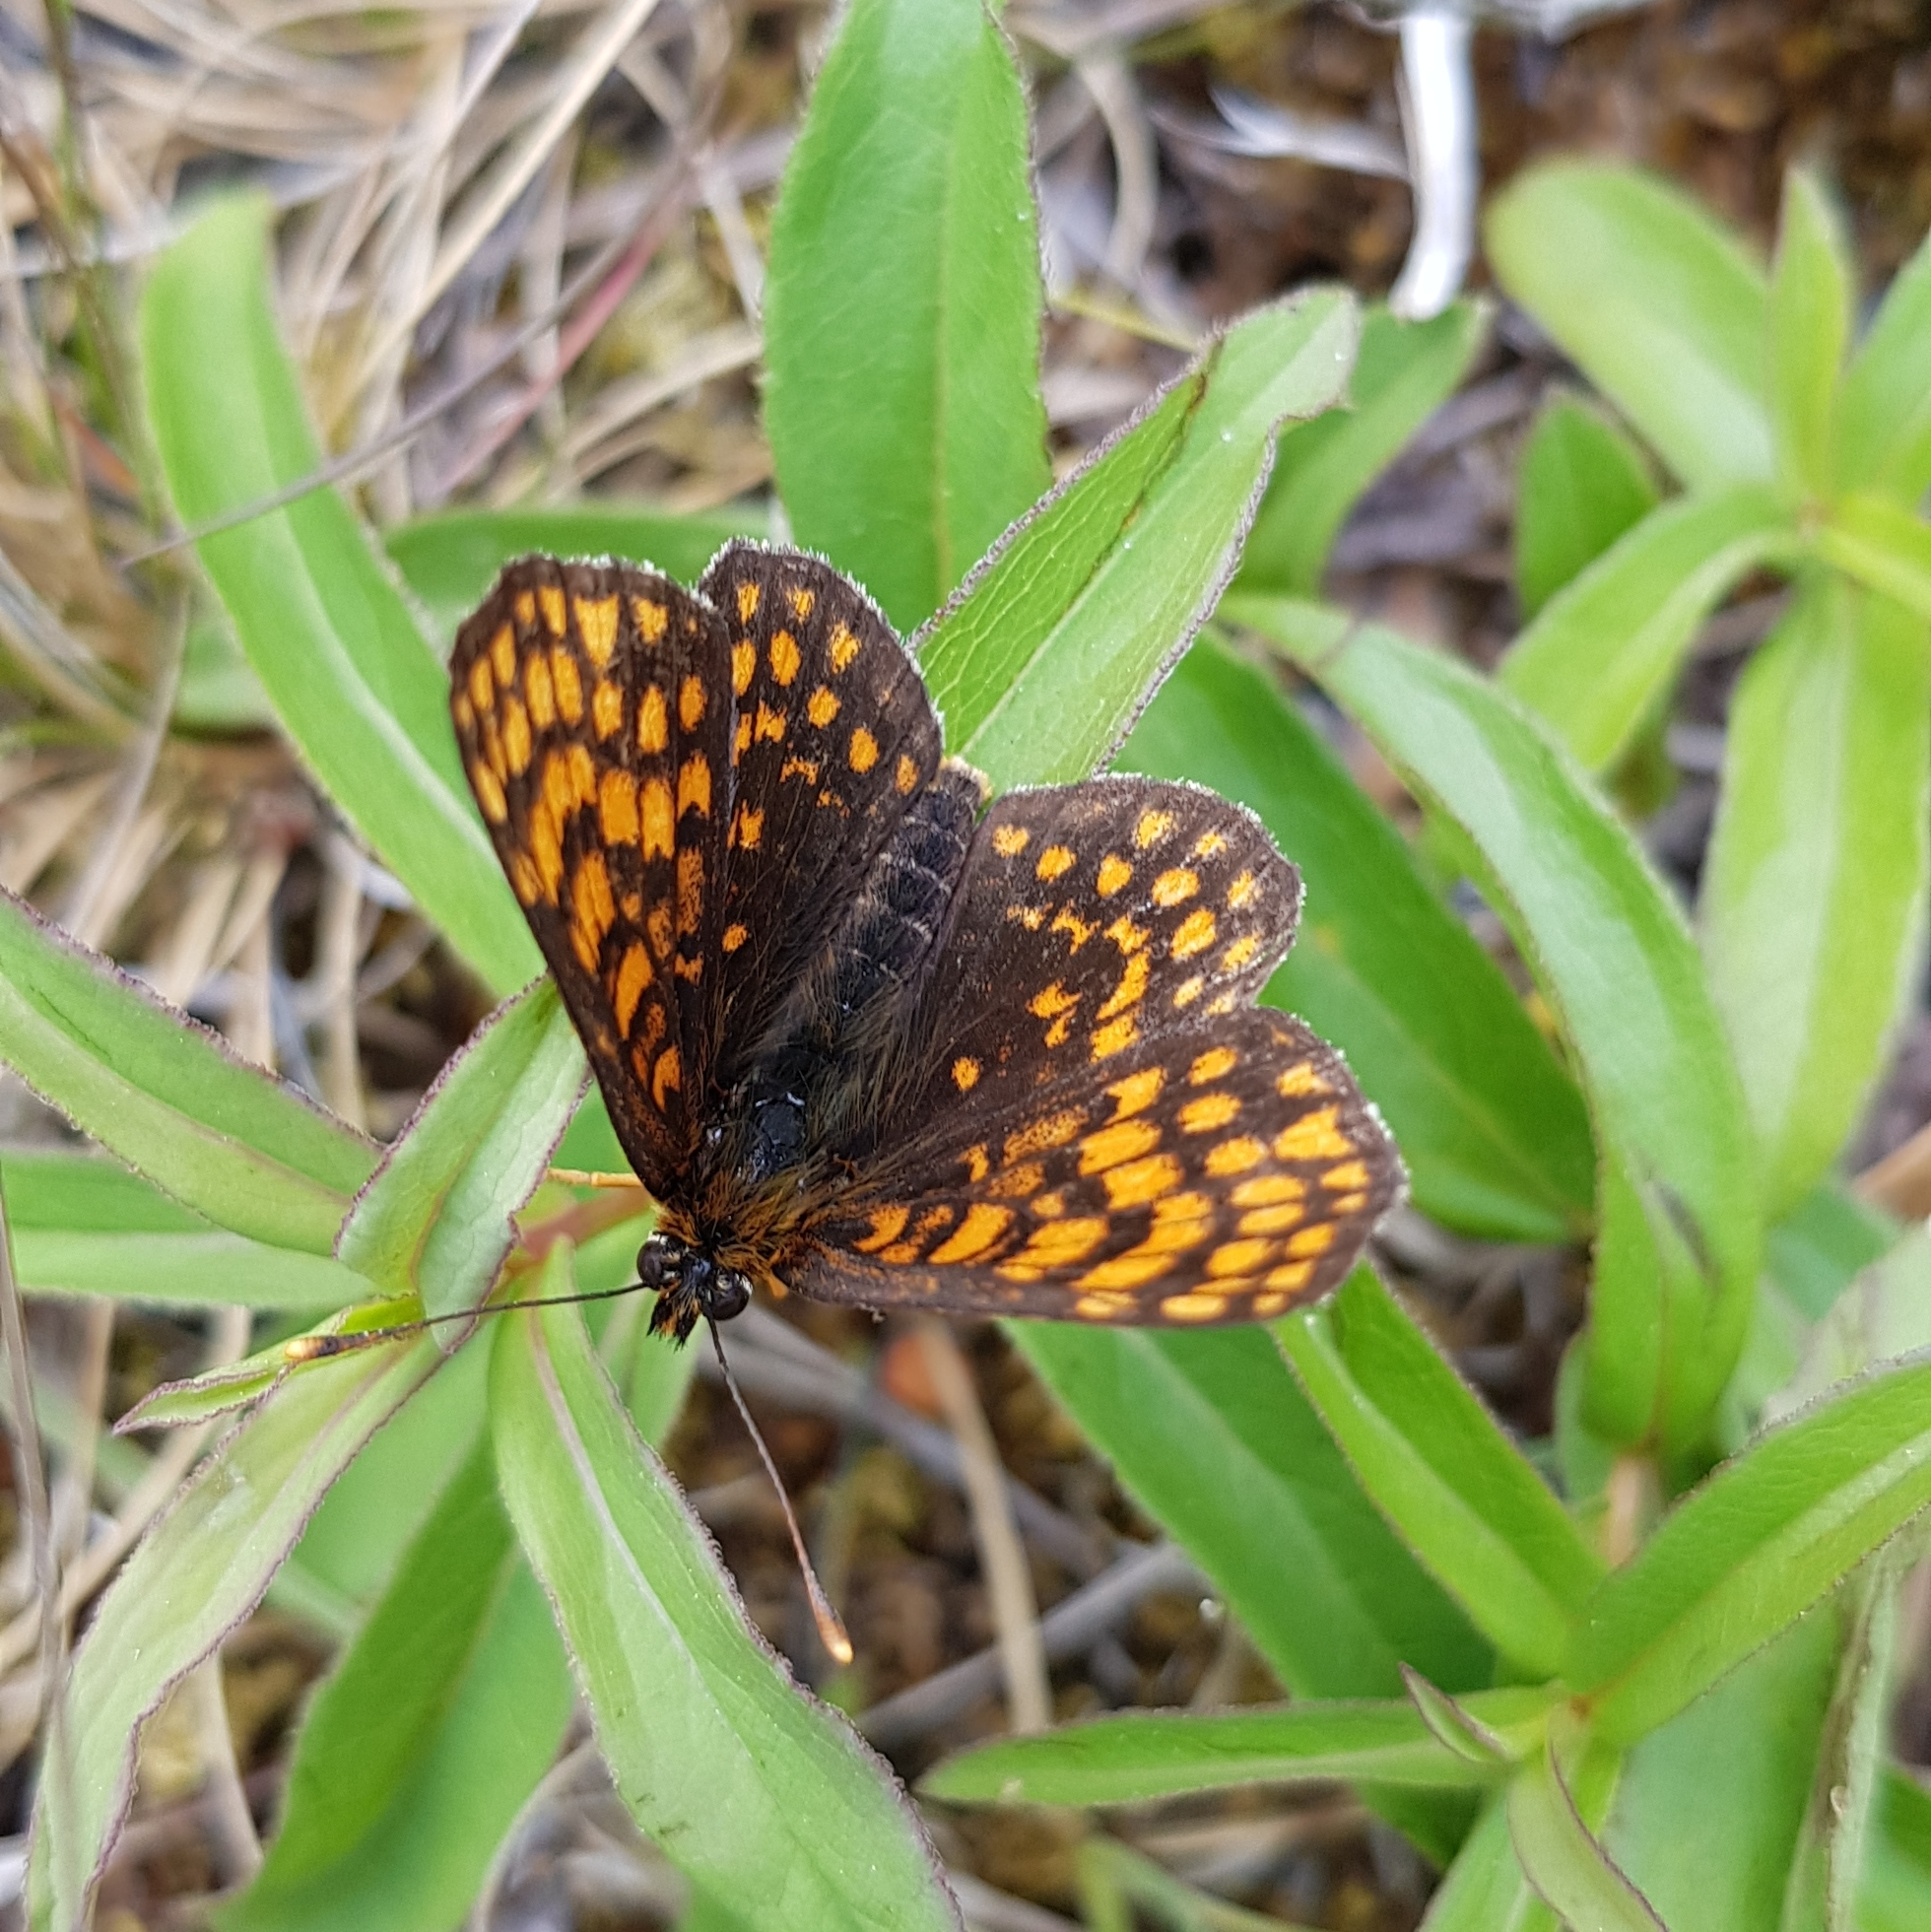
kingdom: Animalia
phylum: Arthropoda
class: Insecta
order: Lepidoptera
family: Nymphalidae
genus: Melitaea
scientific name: Melitaea athalia
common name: Heath fritillary
